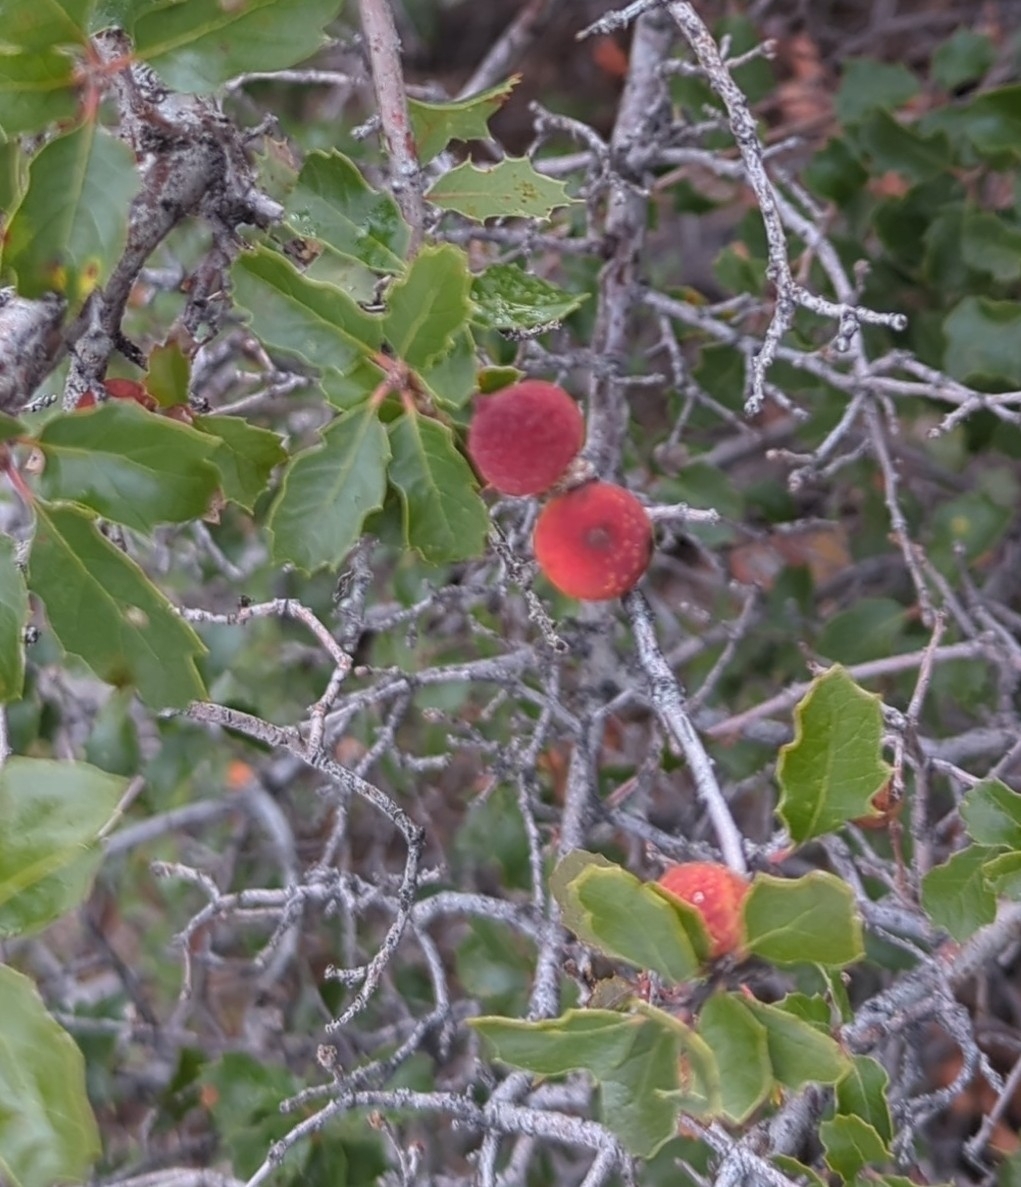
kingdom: Animalia
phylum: Arthropoda
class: Insecta
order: Hymenoptera
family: Cynipidae
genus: Burnettweldia
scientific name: Burnettweldia
